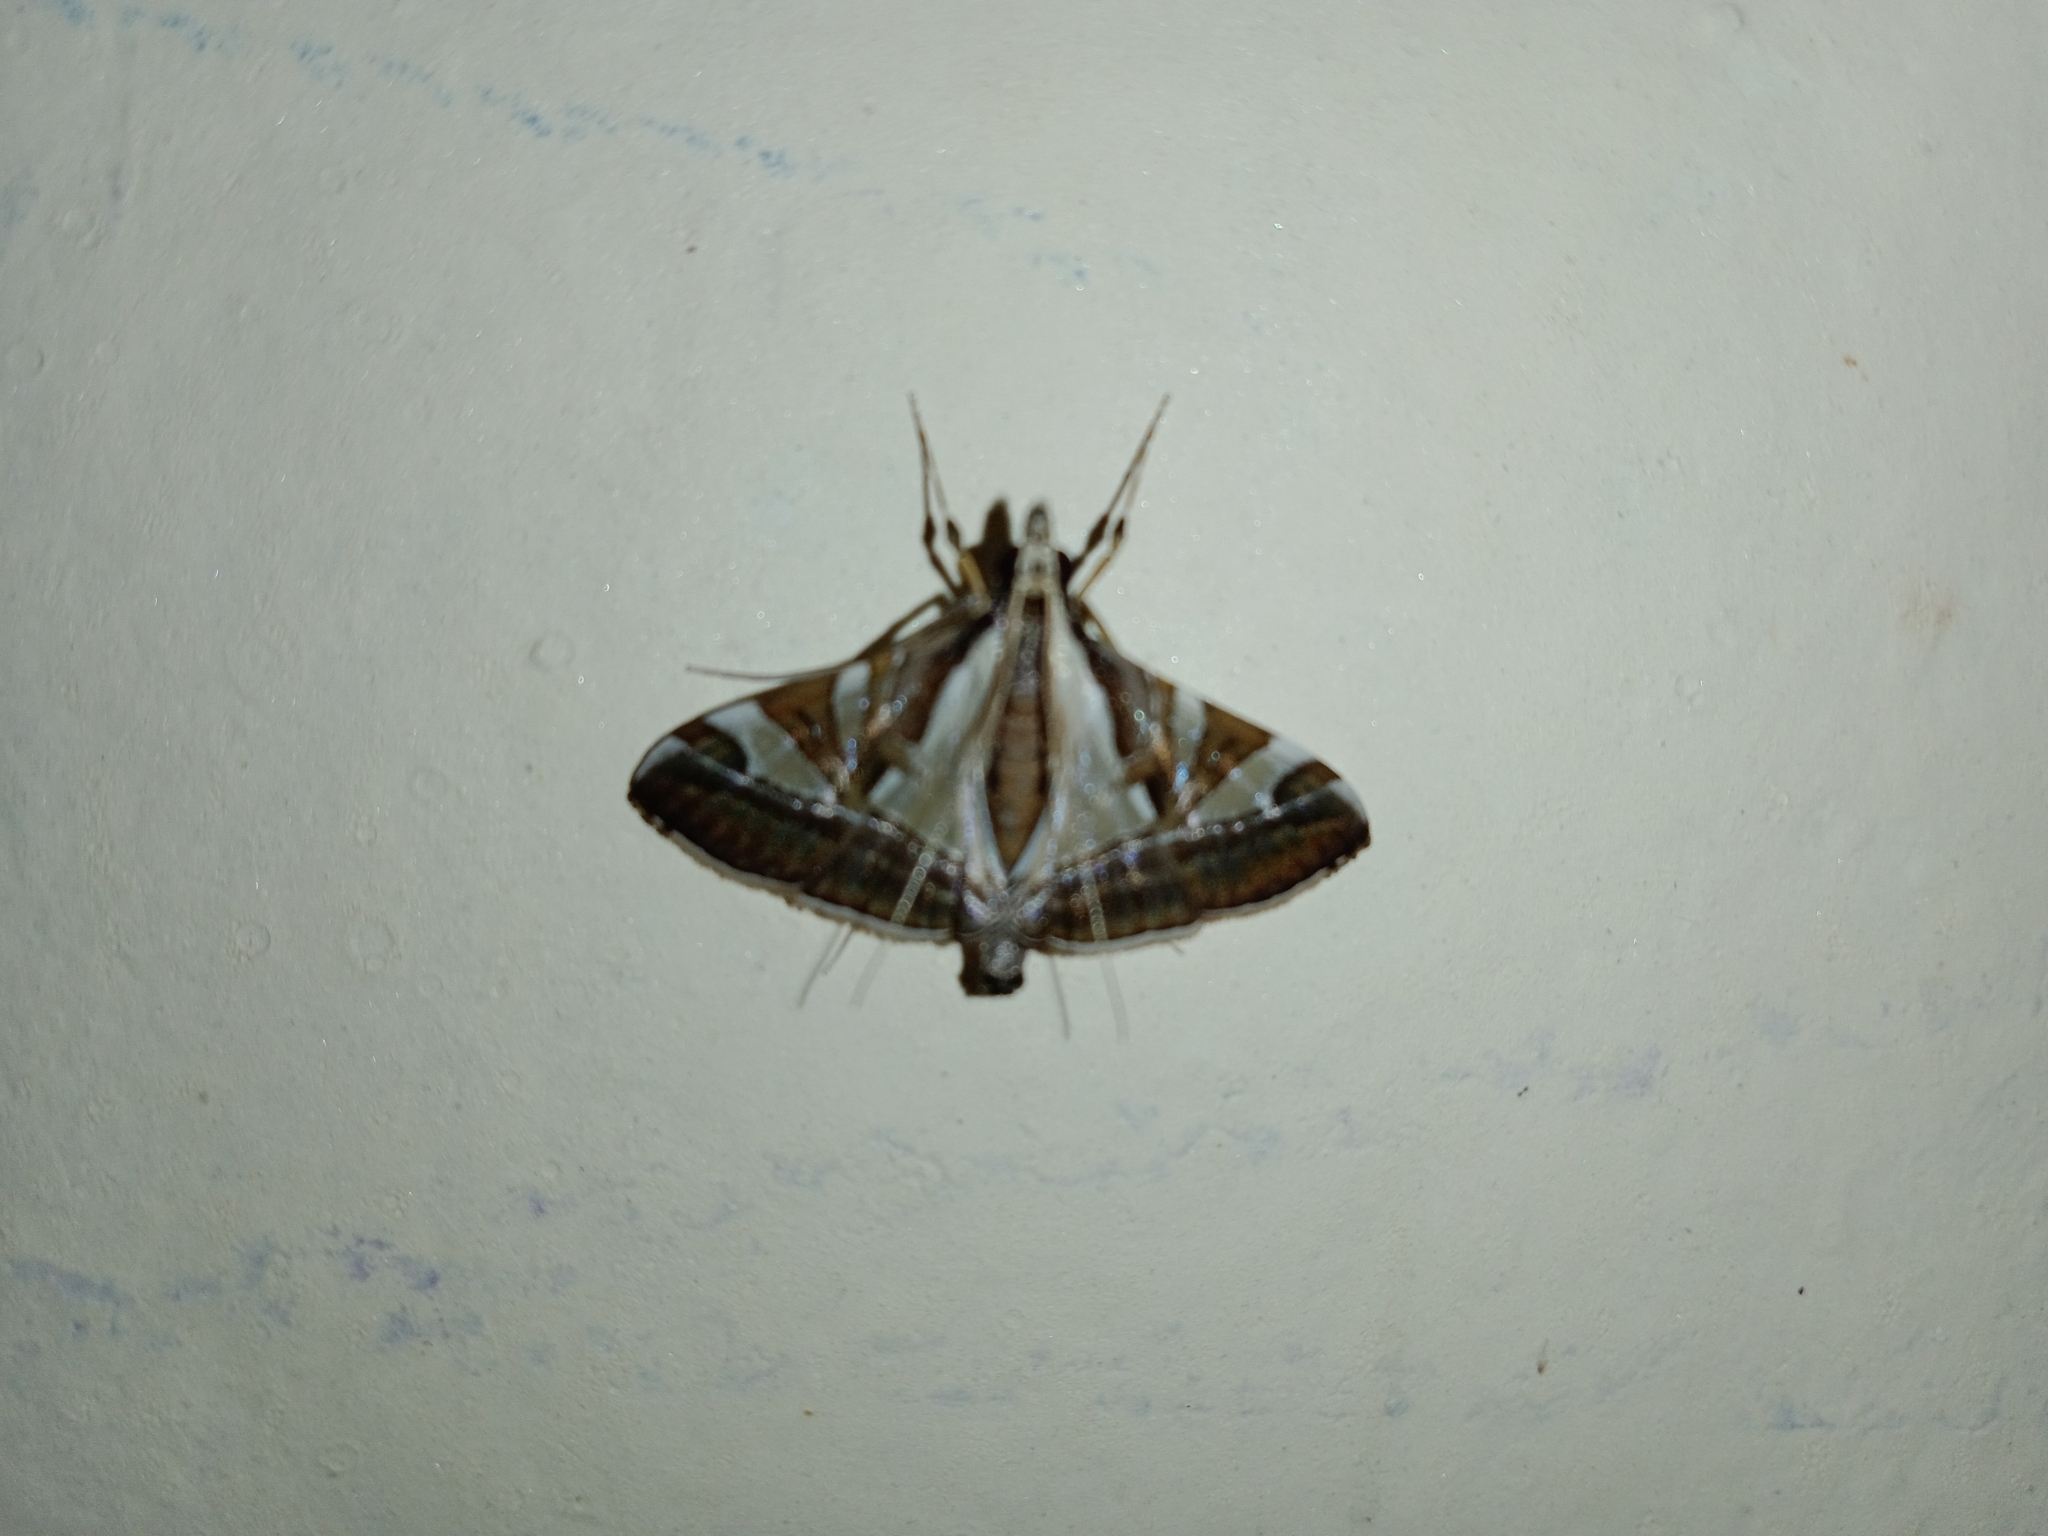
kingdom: Animalia
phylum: Arthropoda
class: Insecta
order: Lepidoptera
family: Crambidae
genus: Agrioglypta
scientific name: Agrioglypta itysalis
